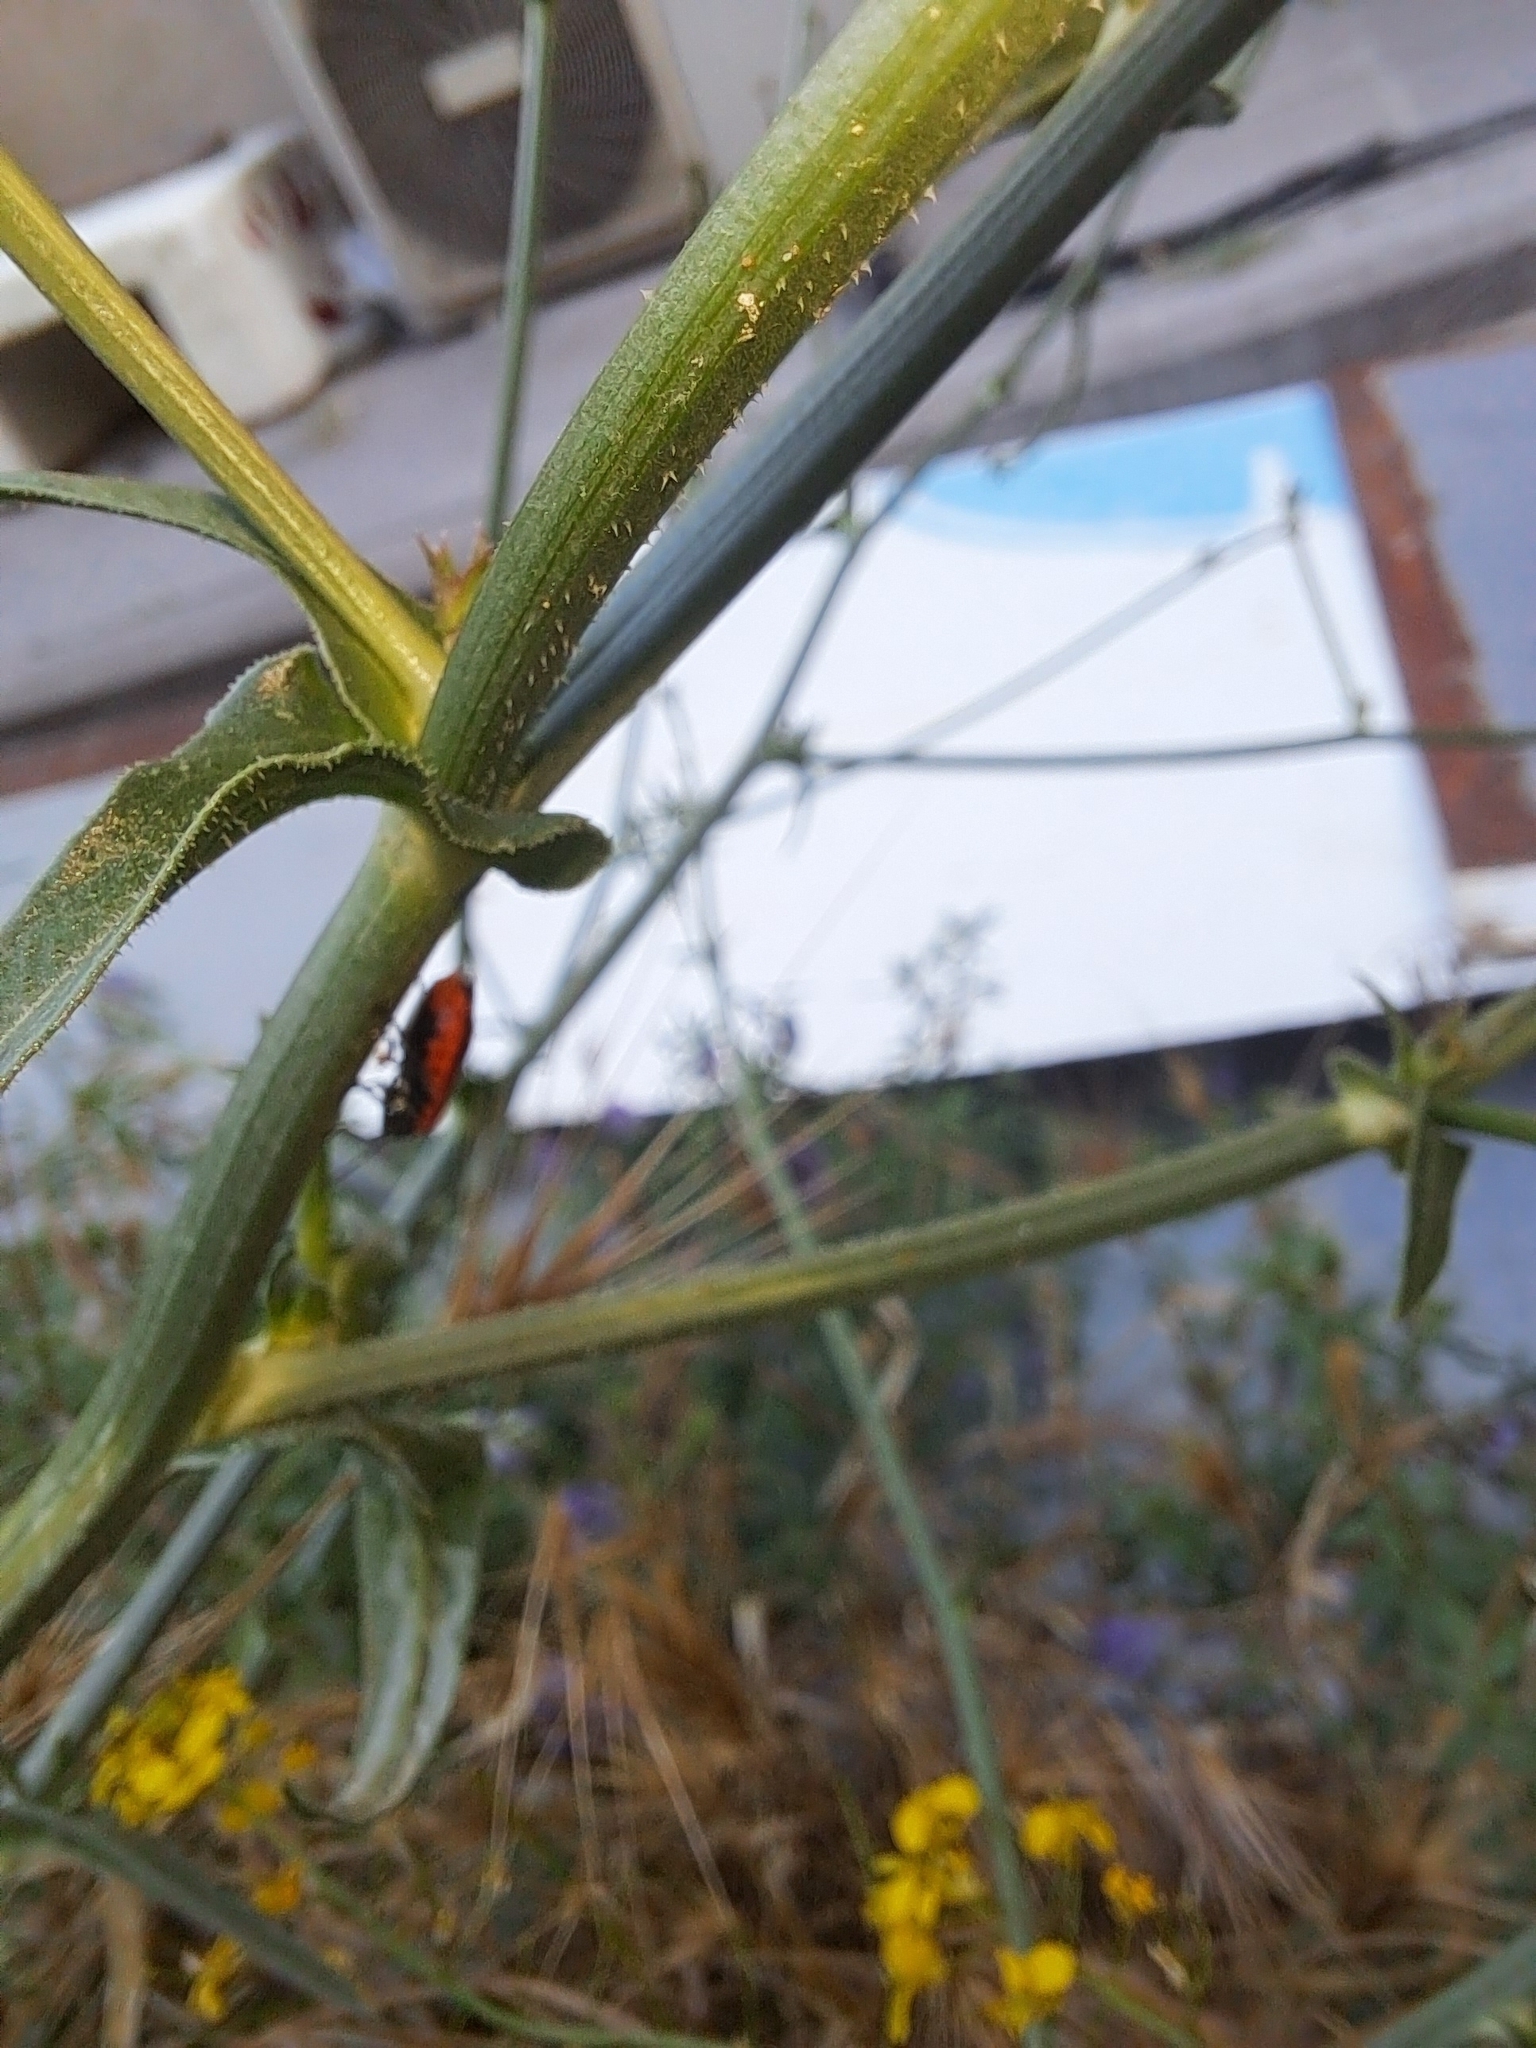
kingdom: Animalia
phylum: Arthropoda
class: Insecta
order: Hemiptera
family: Pentatomidae
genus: Eurydema
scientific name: Eurydema ornata
